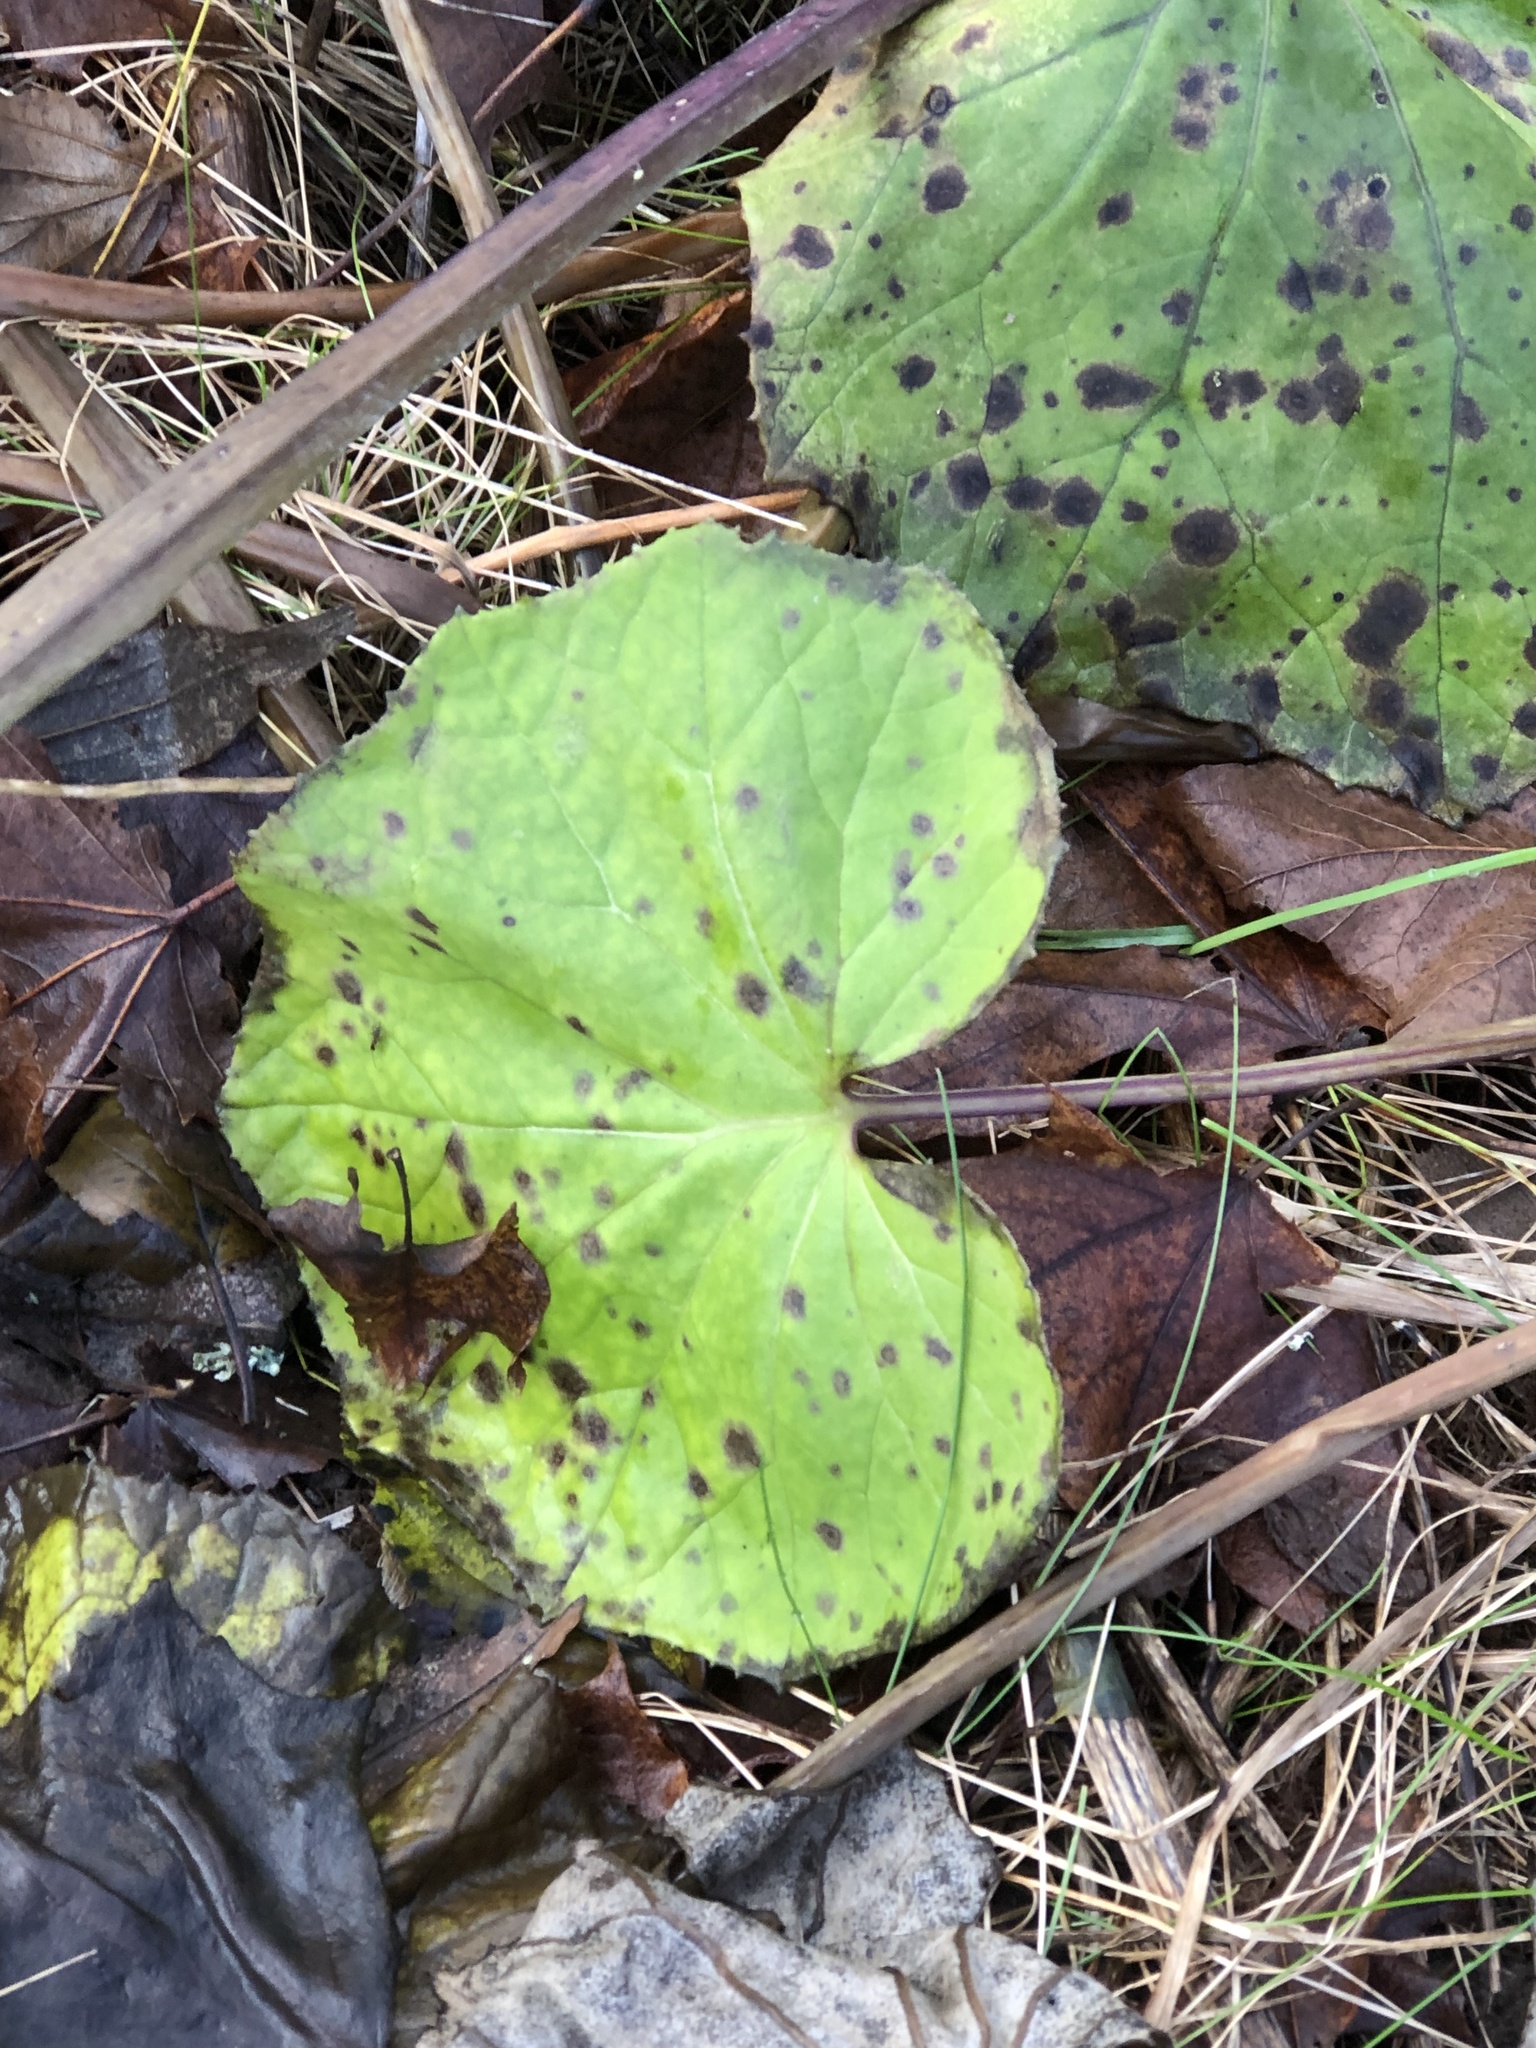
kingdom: Plantae
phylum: Tracheophyta
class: Magnoliopsida
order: Asterales
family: Asteraceae
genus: Tussilago
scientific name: Tussilago farfara
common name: Coltsfoot
